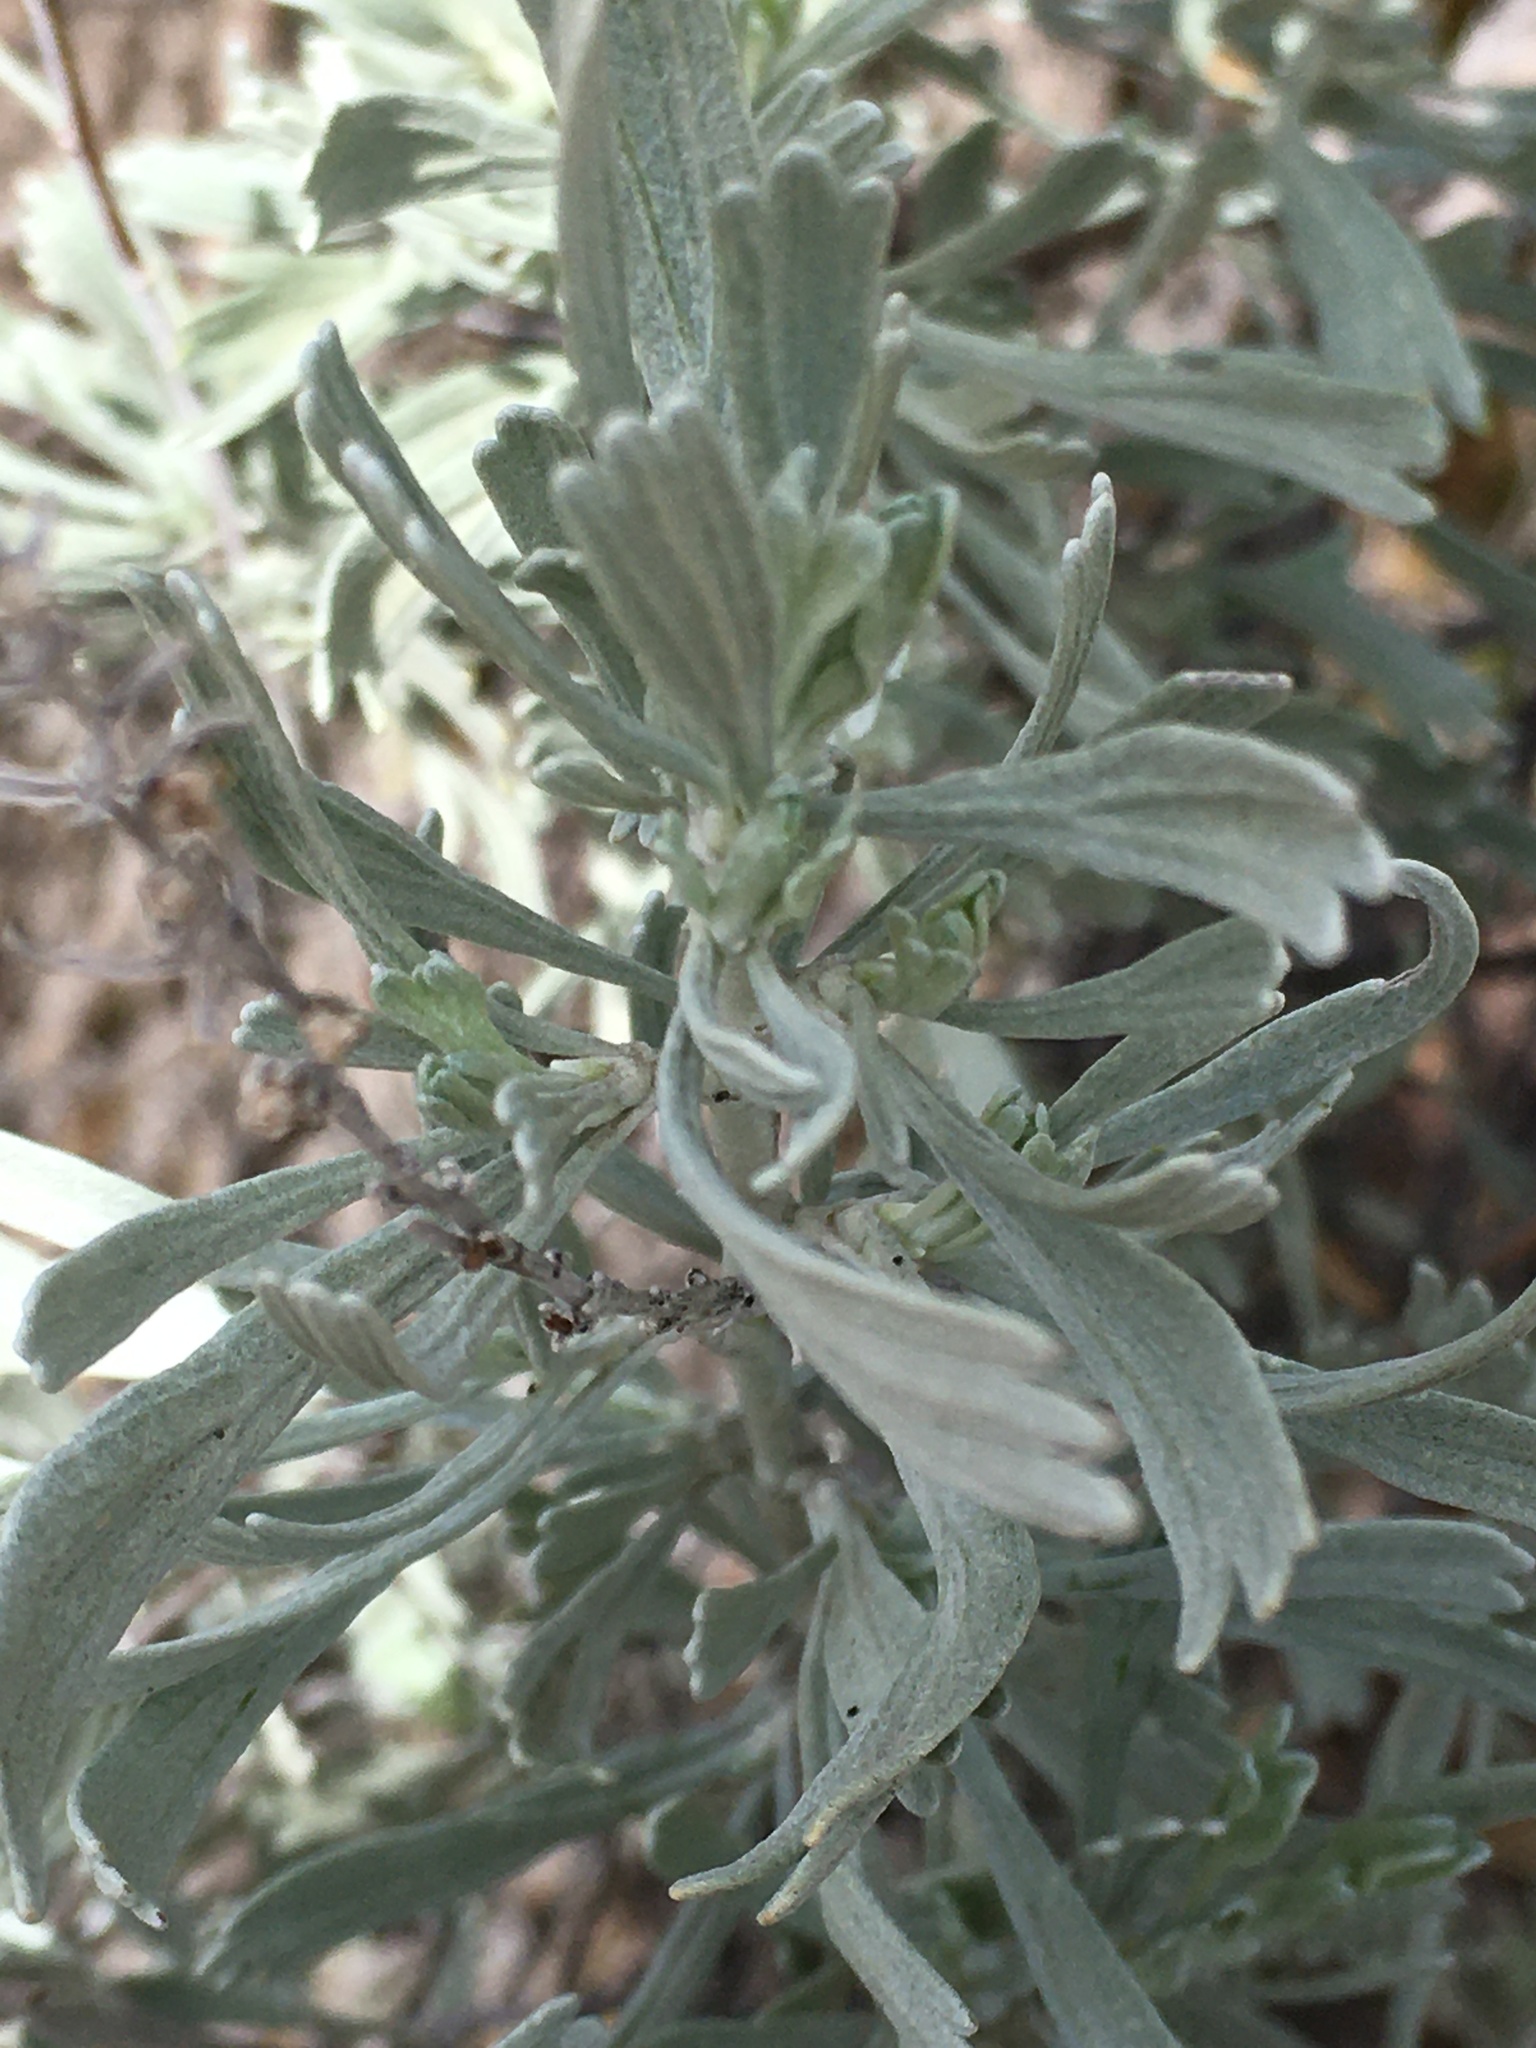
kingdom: Plantae
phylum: Tracheophyta
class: Magnoliopsida
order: Asterales
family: Asteraceae
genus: Artemisia
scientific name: Artemisia tridentata
